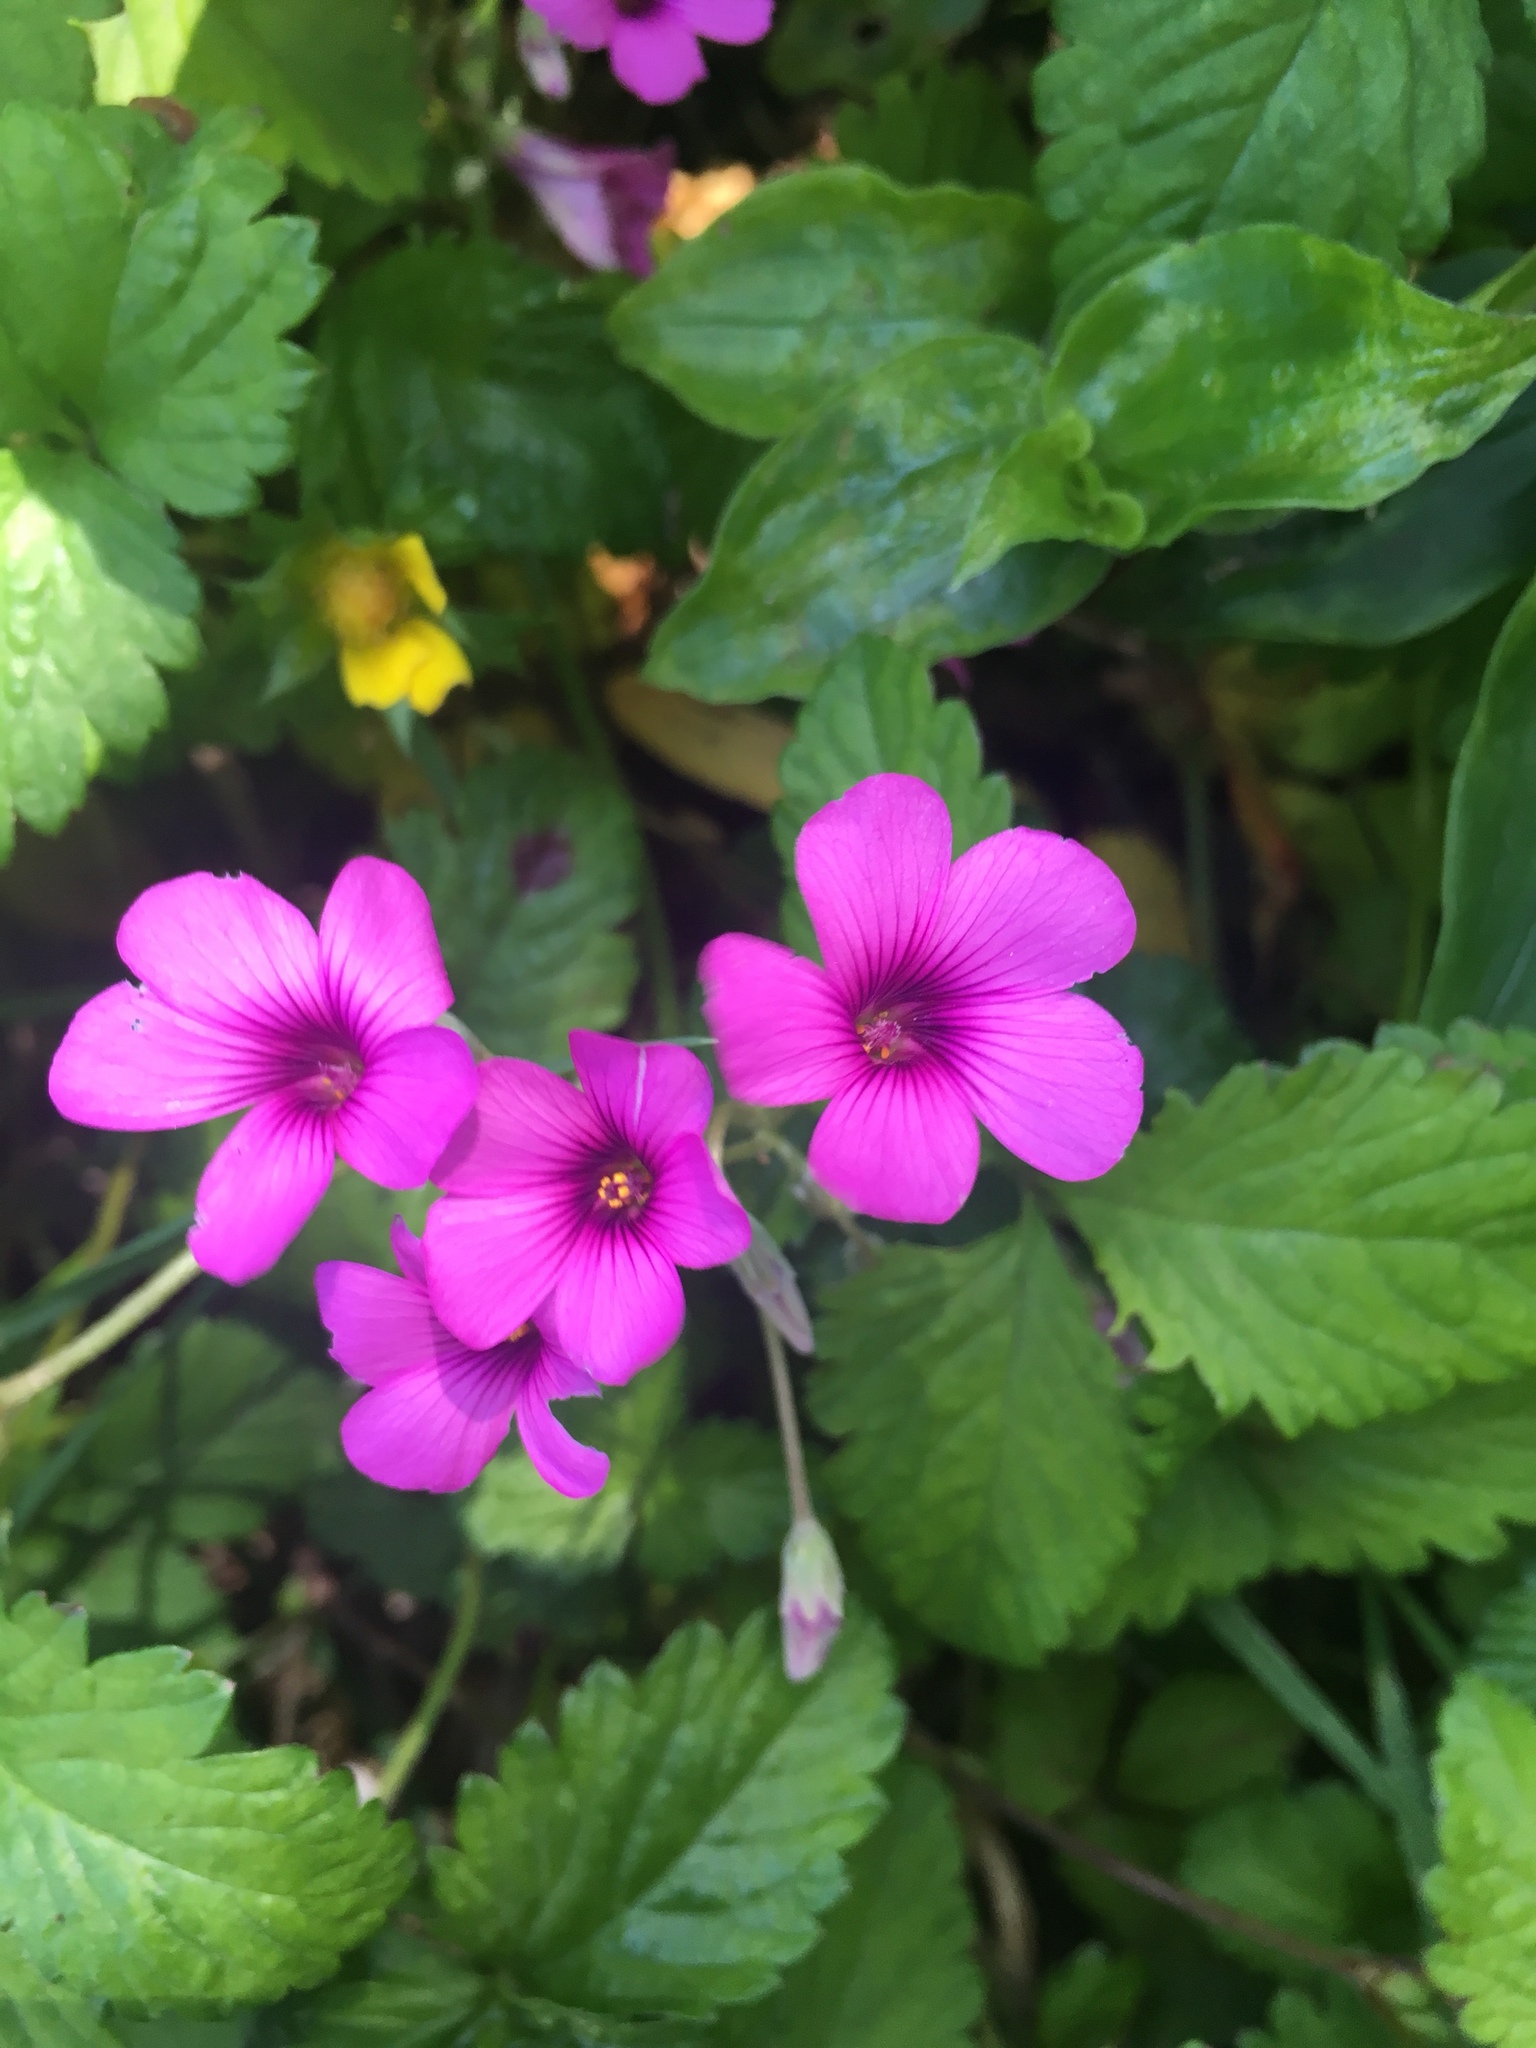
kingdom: Plantae
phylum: Tracheophyta
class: Magnoliopsida
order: Oxalidales
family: Oxalidaceae
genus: Oxalis
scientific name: Oxalis articulata
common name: Pink-sorrel
